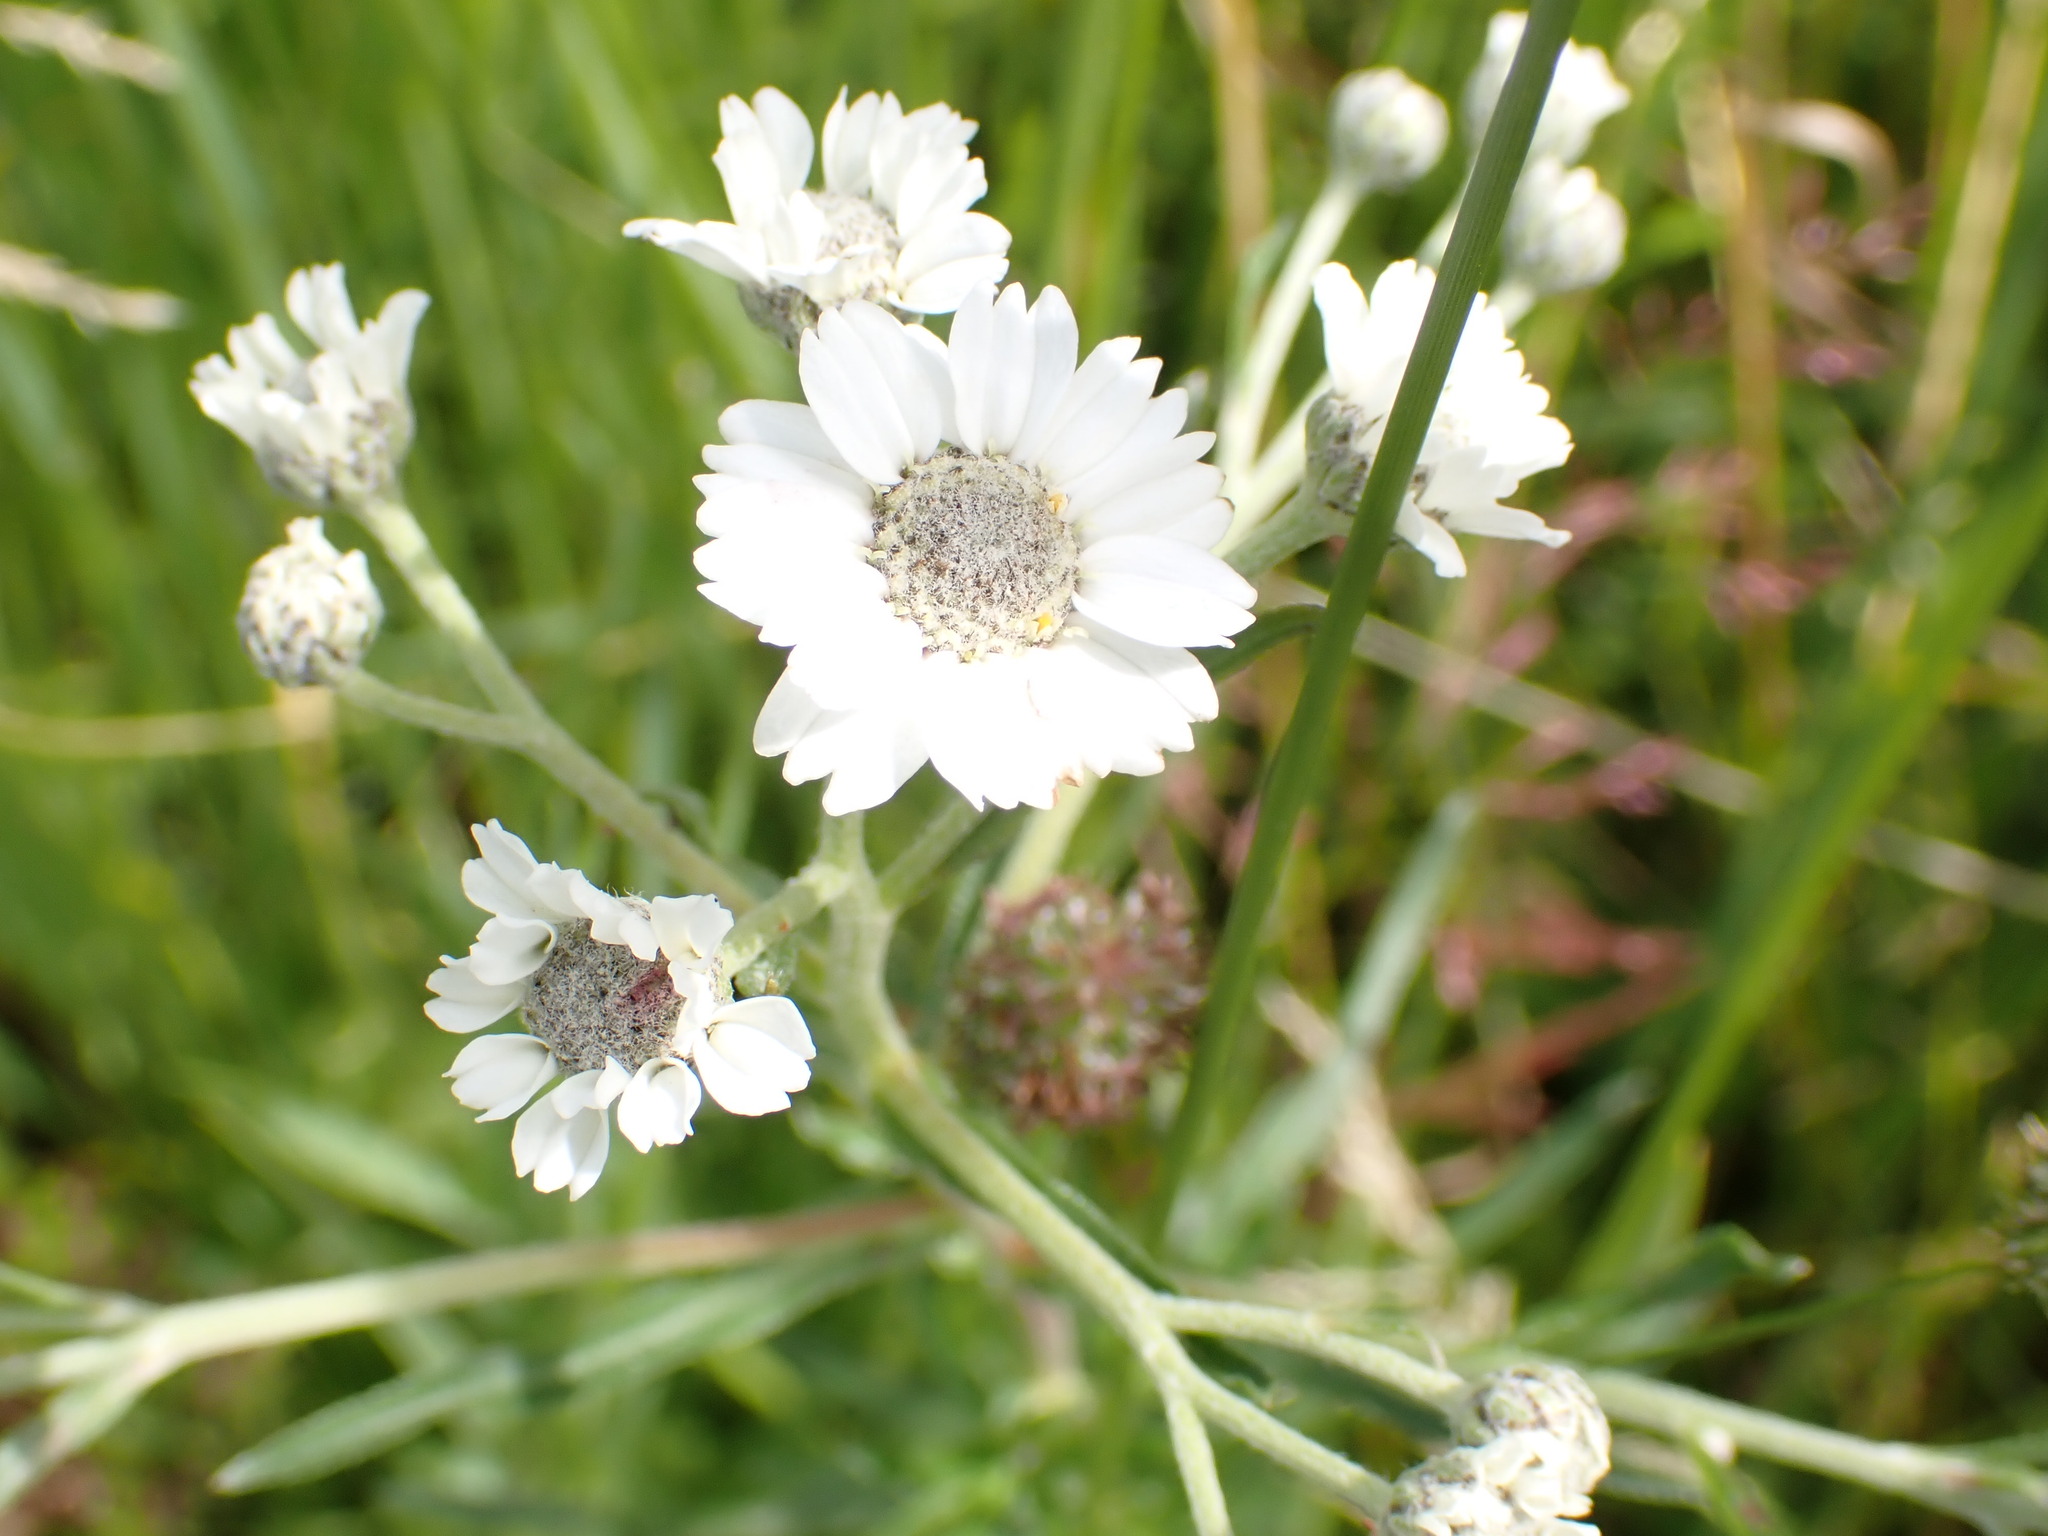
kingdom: Plantae
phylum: Tracheophyta
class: Magnoliopsida
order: Asterales
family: Asteraceae
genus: Achillea
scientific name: Achillea ptarmica
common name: Sneezeweed
